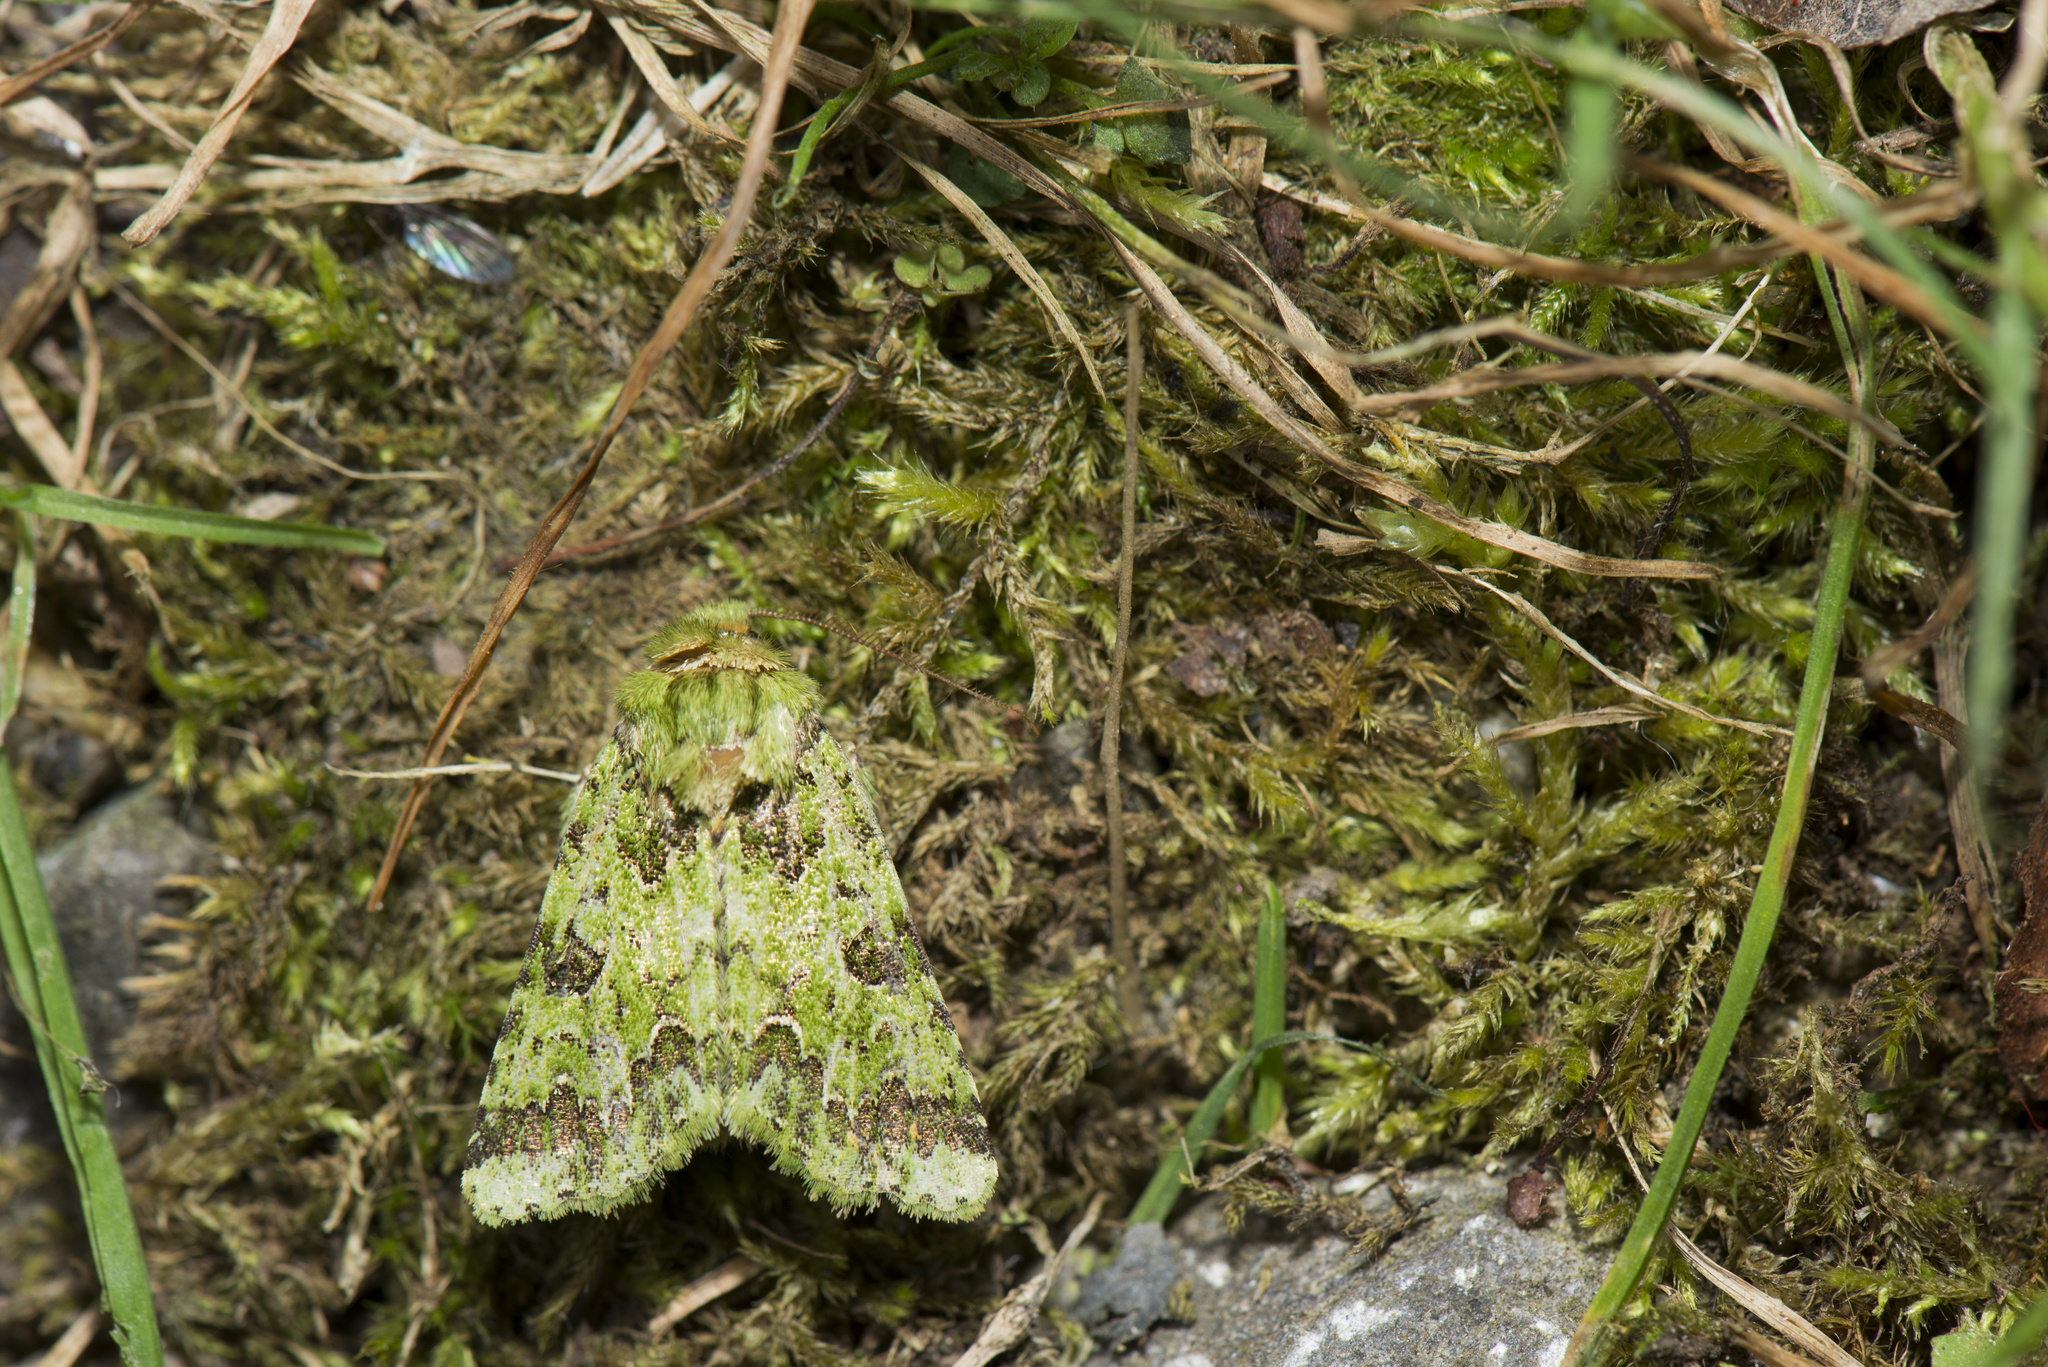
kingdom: Animalia
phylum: Arthropoda
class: Insecta
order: Lepidoptera
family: Noctuidae
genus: Vigentinocome
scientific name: Vigentinocome autumnalis
